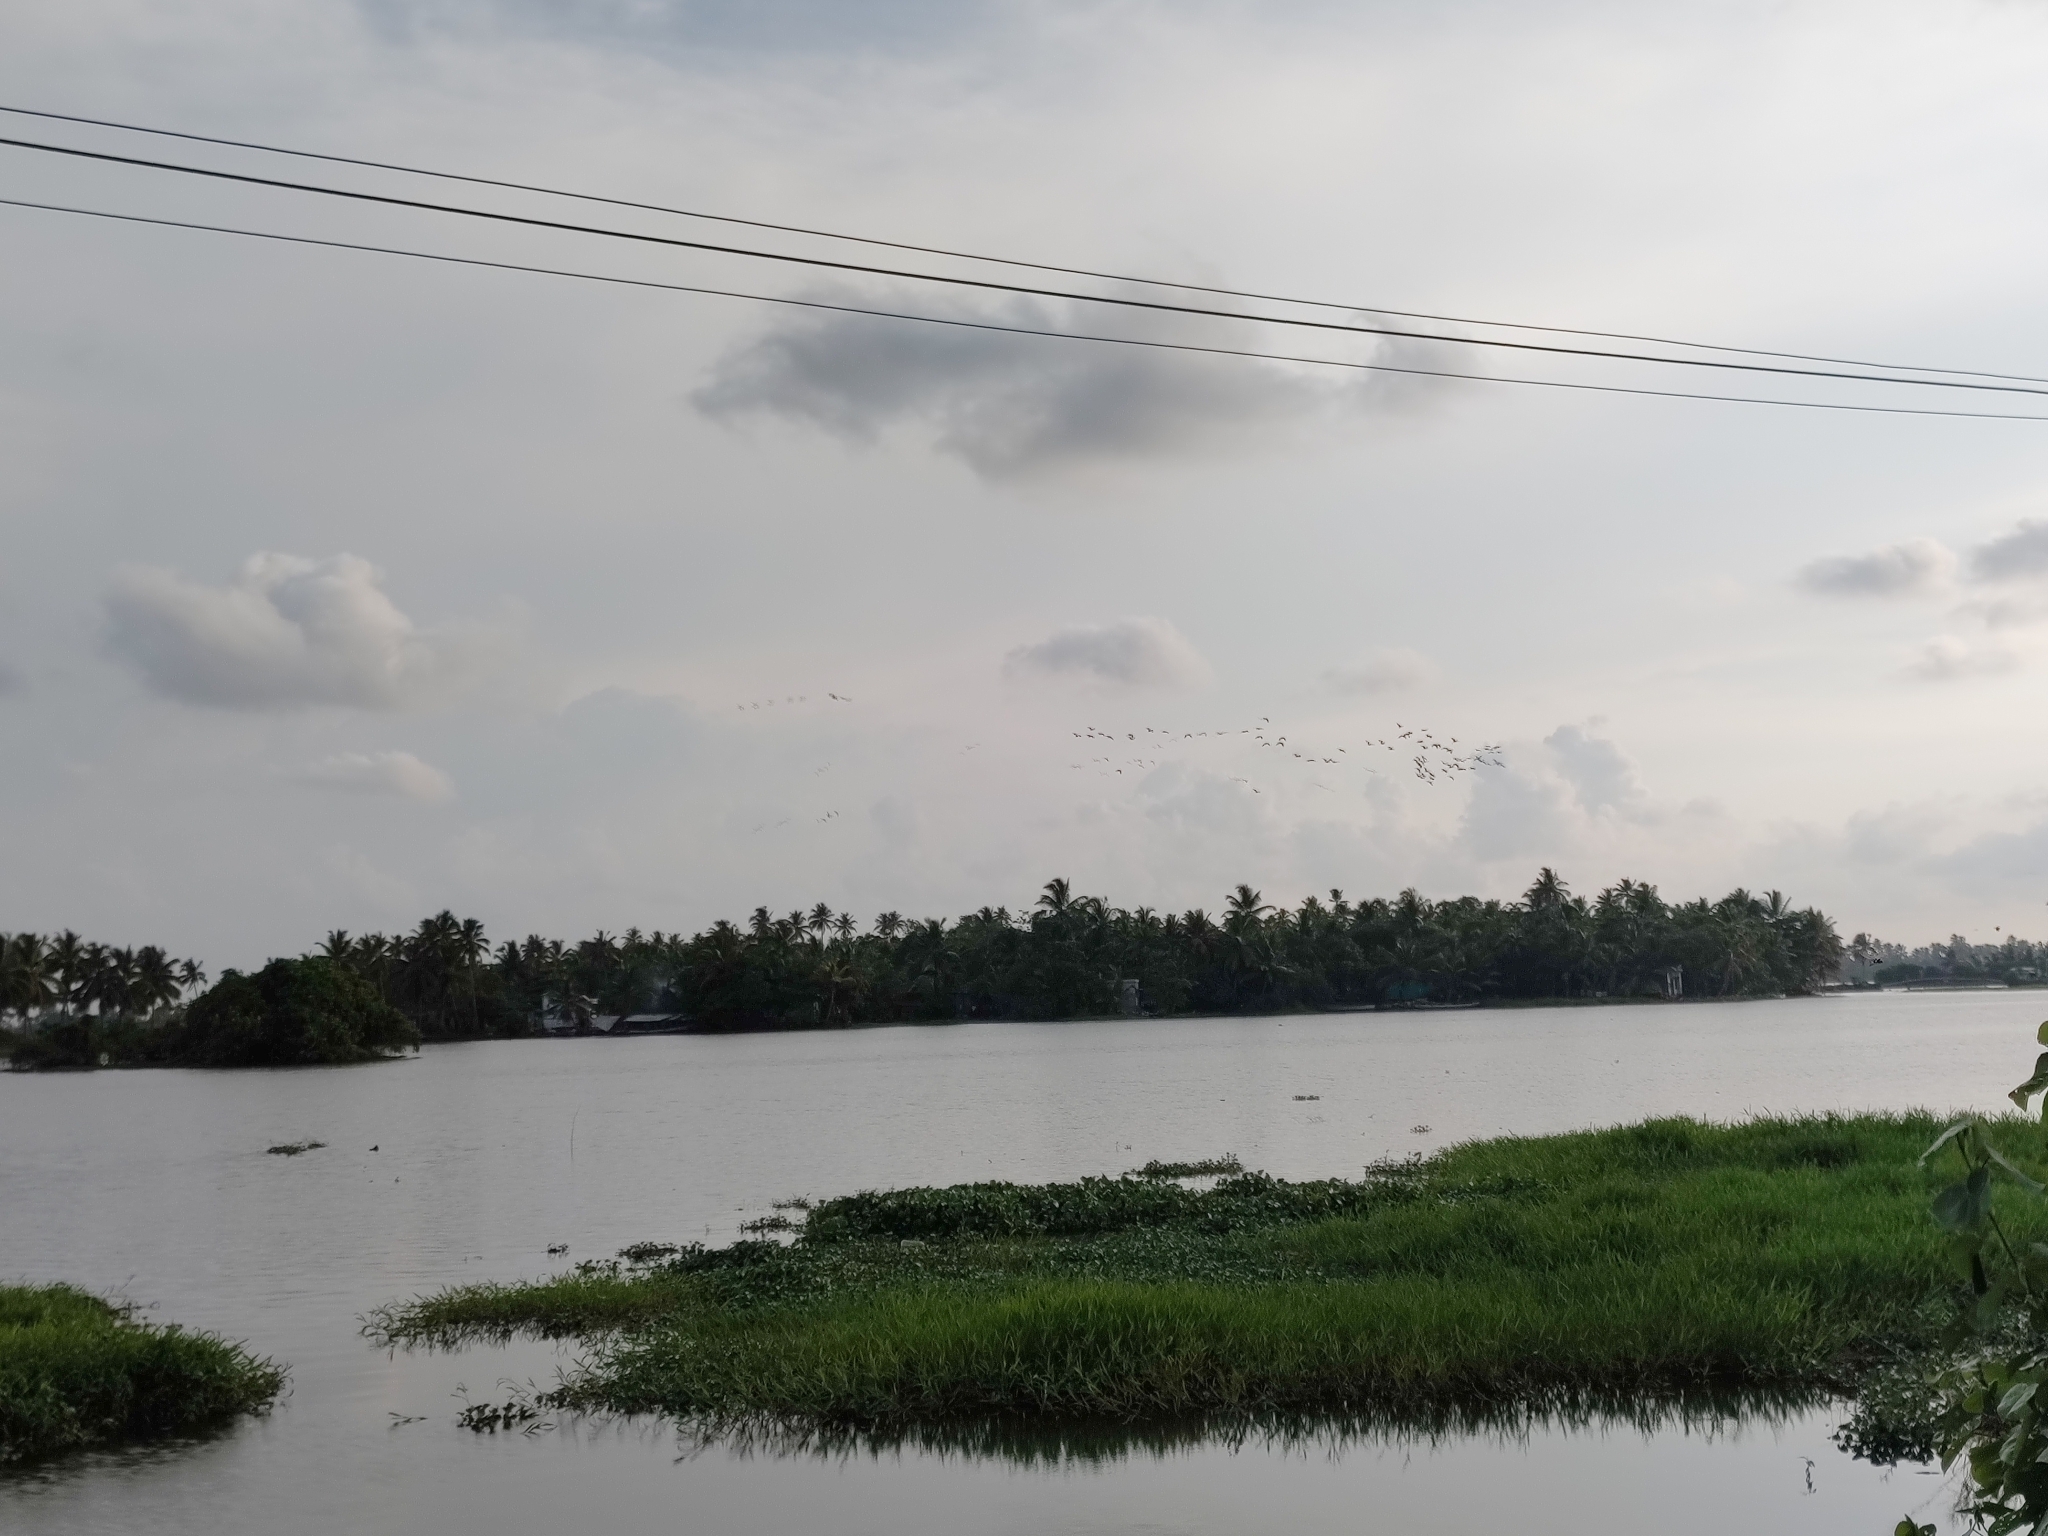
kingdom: Animalia
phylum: Chordata
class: Aves
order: Pelecaniformes
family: Threskiornithidae
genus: Plegadis
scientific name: Plegadis falcinellus
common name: Glossy ibis
